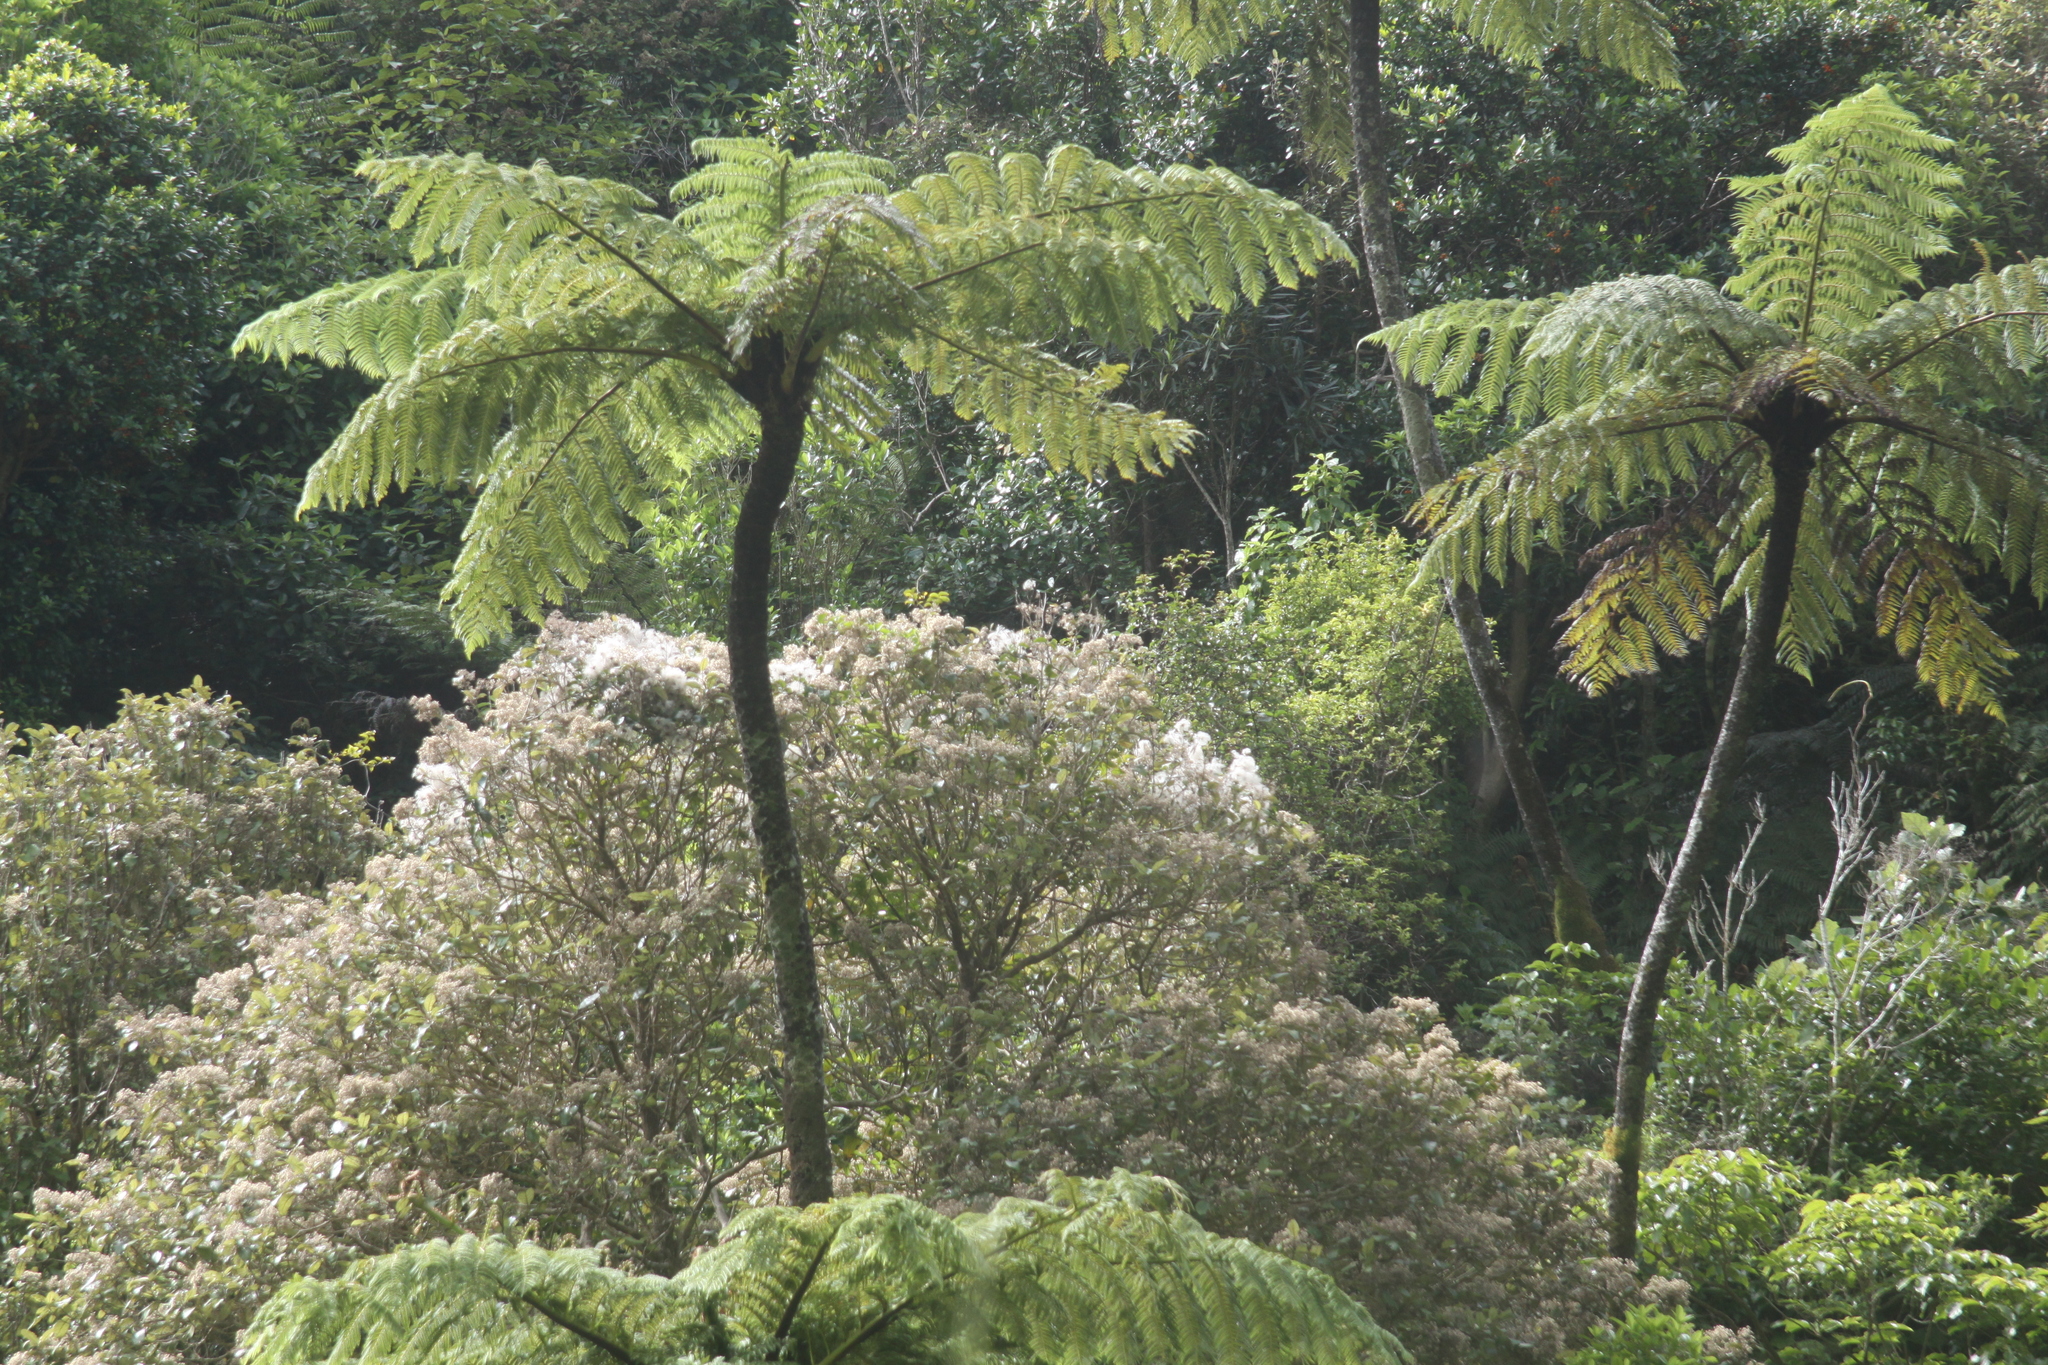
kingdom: Plantae
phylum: Tracheophyta
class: Polypodiopsida
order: Cyatheales
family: Cyatheaceae
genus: Sphaeropteris
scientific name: Sphaeropteris medullaris
